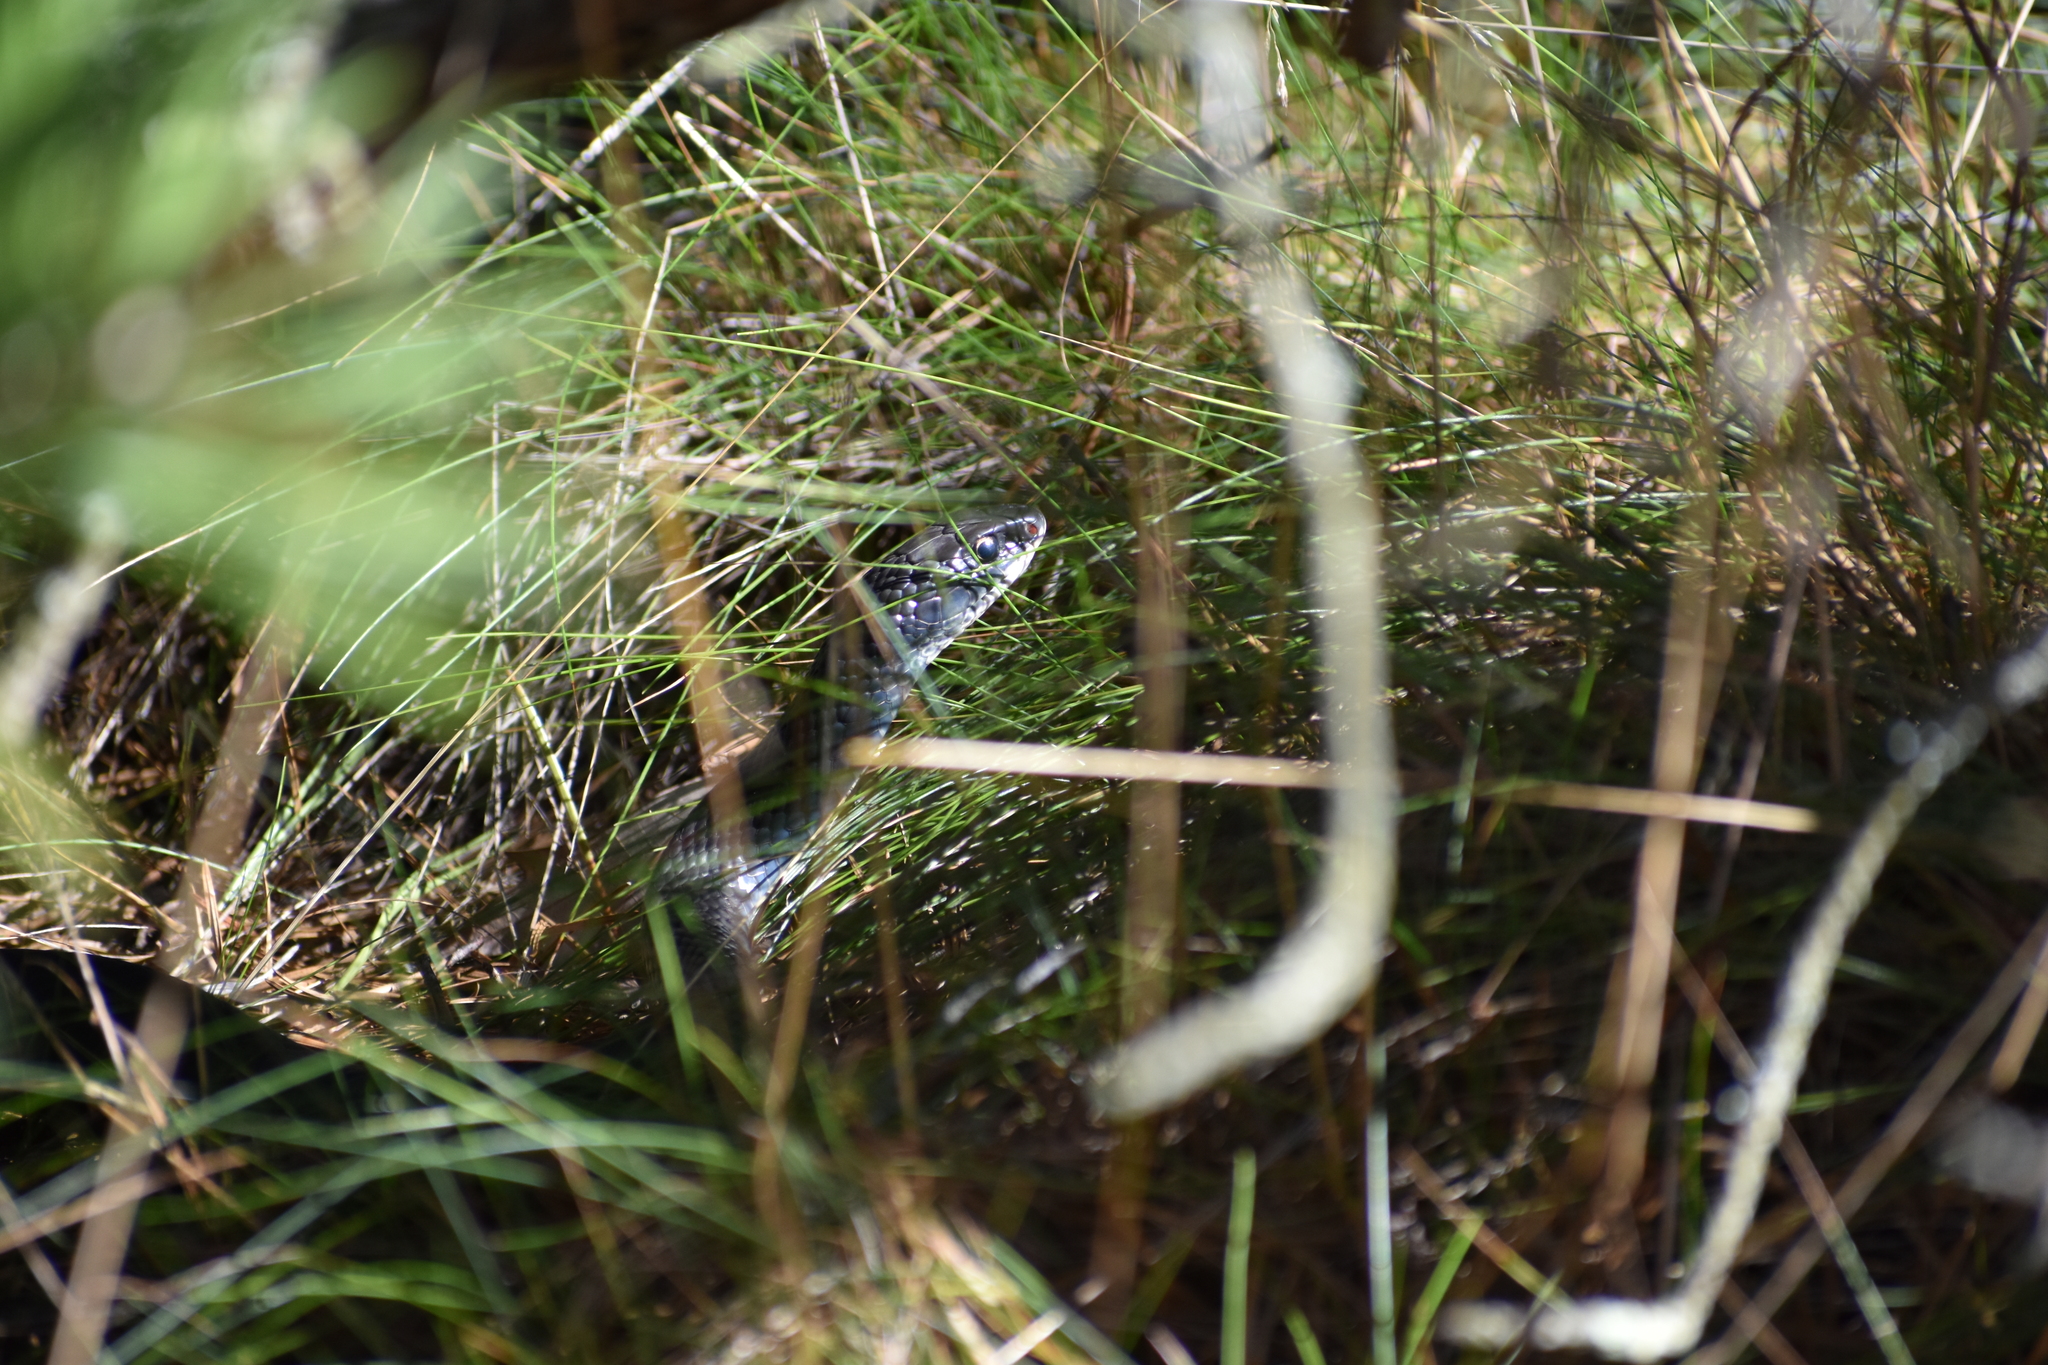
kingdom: Animalia
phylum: Chordata
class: Squamata
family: Colubridae
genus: Coluber
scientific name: Coluber constrictor
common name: Eastern racer
